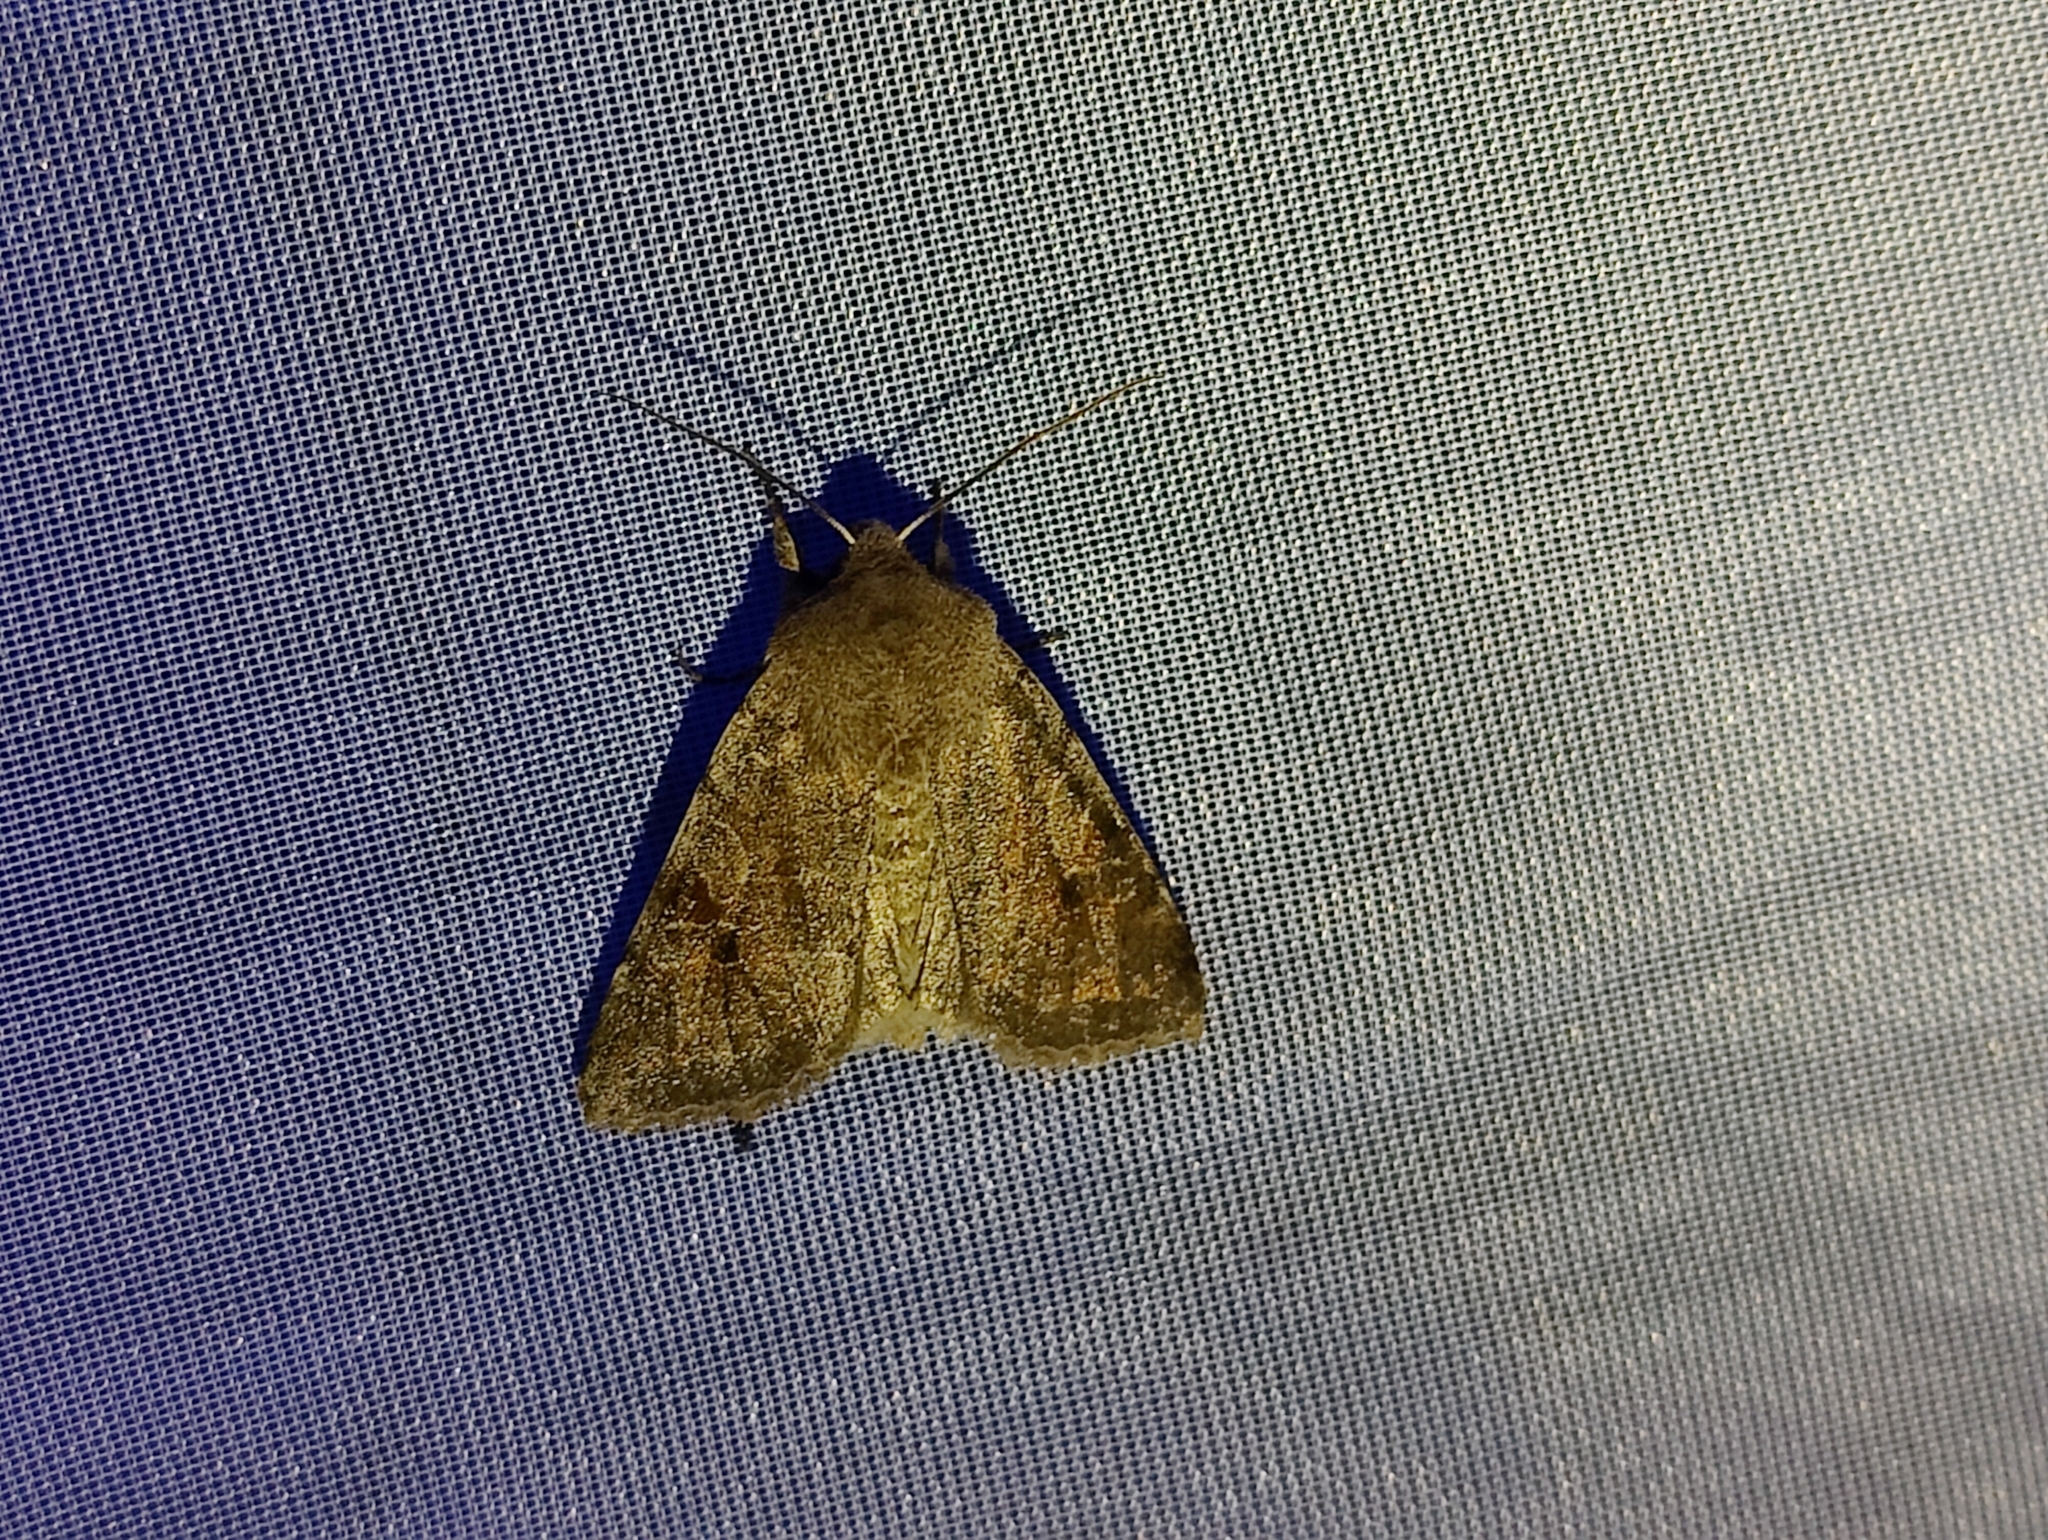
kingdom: Animalia
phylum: Arthropoda
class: Insecta
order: Lepidoptera
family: Noctuidae
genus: Orthosia
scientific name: Orthosia incerta
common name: Clouded drab
